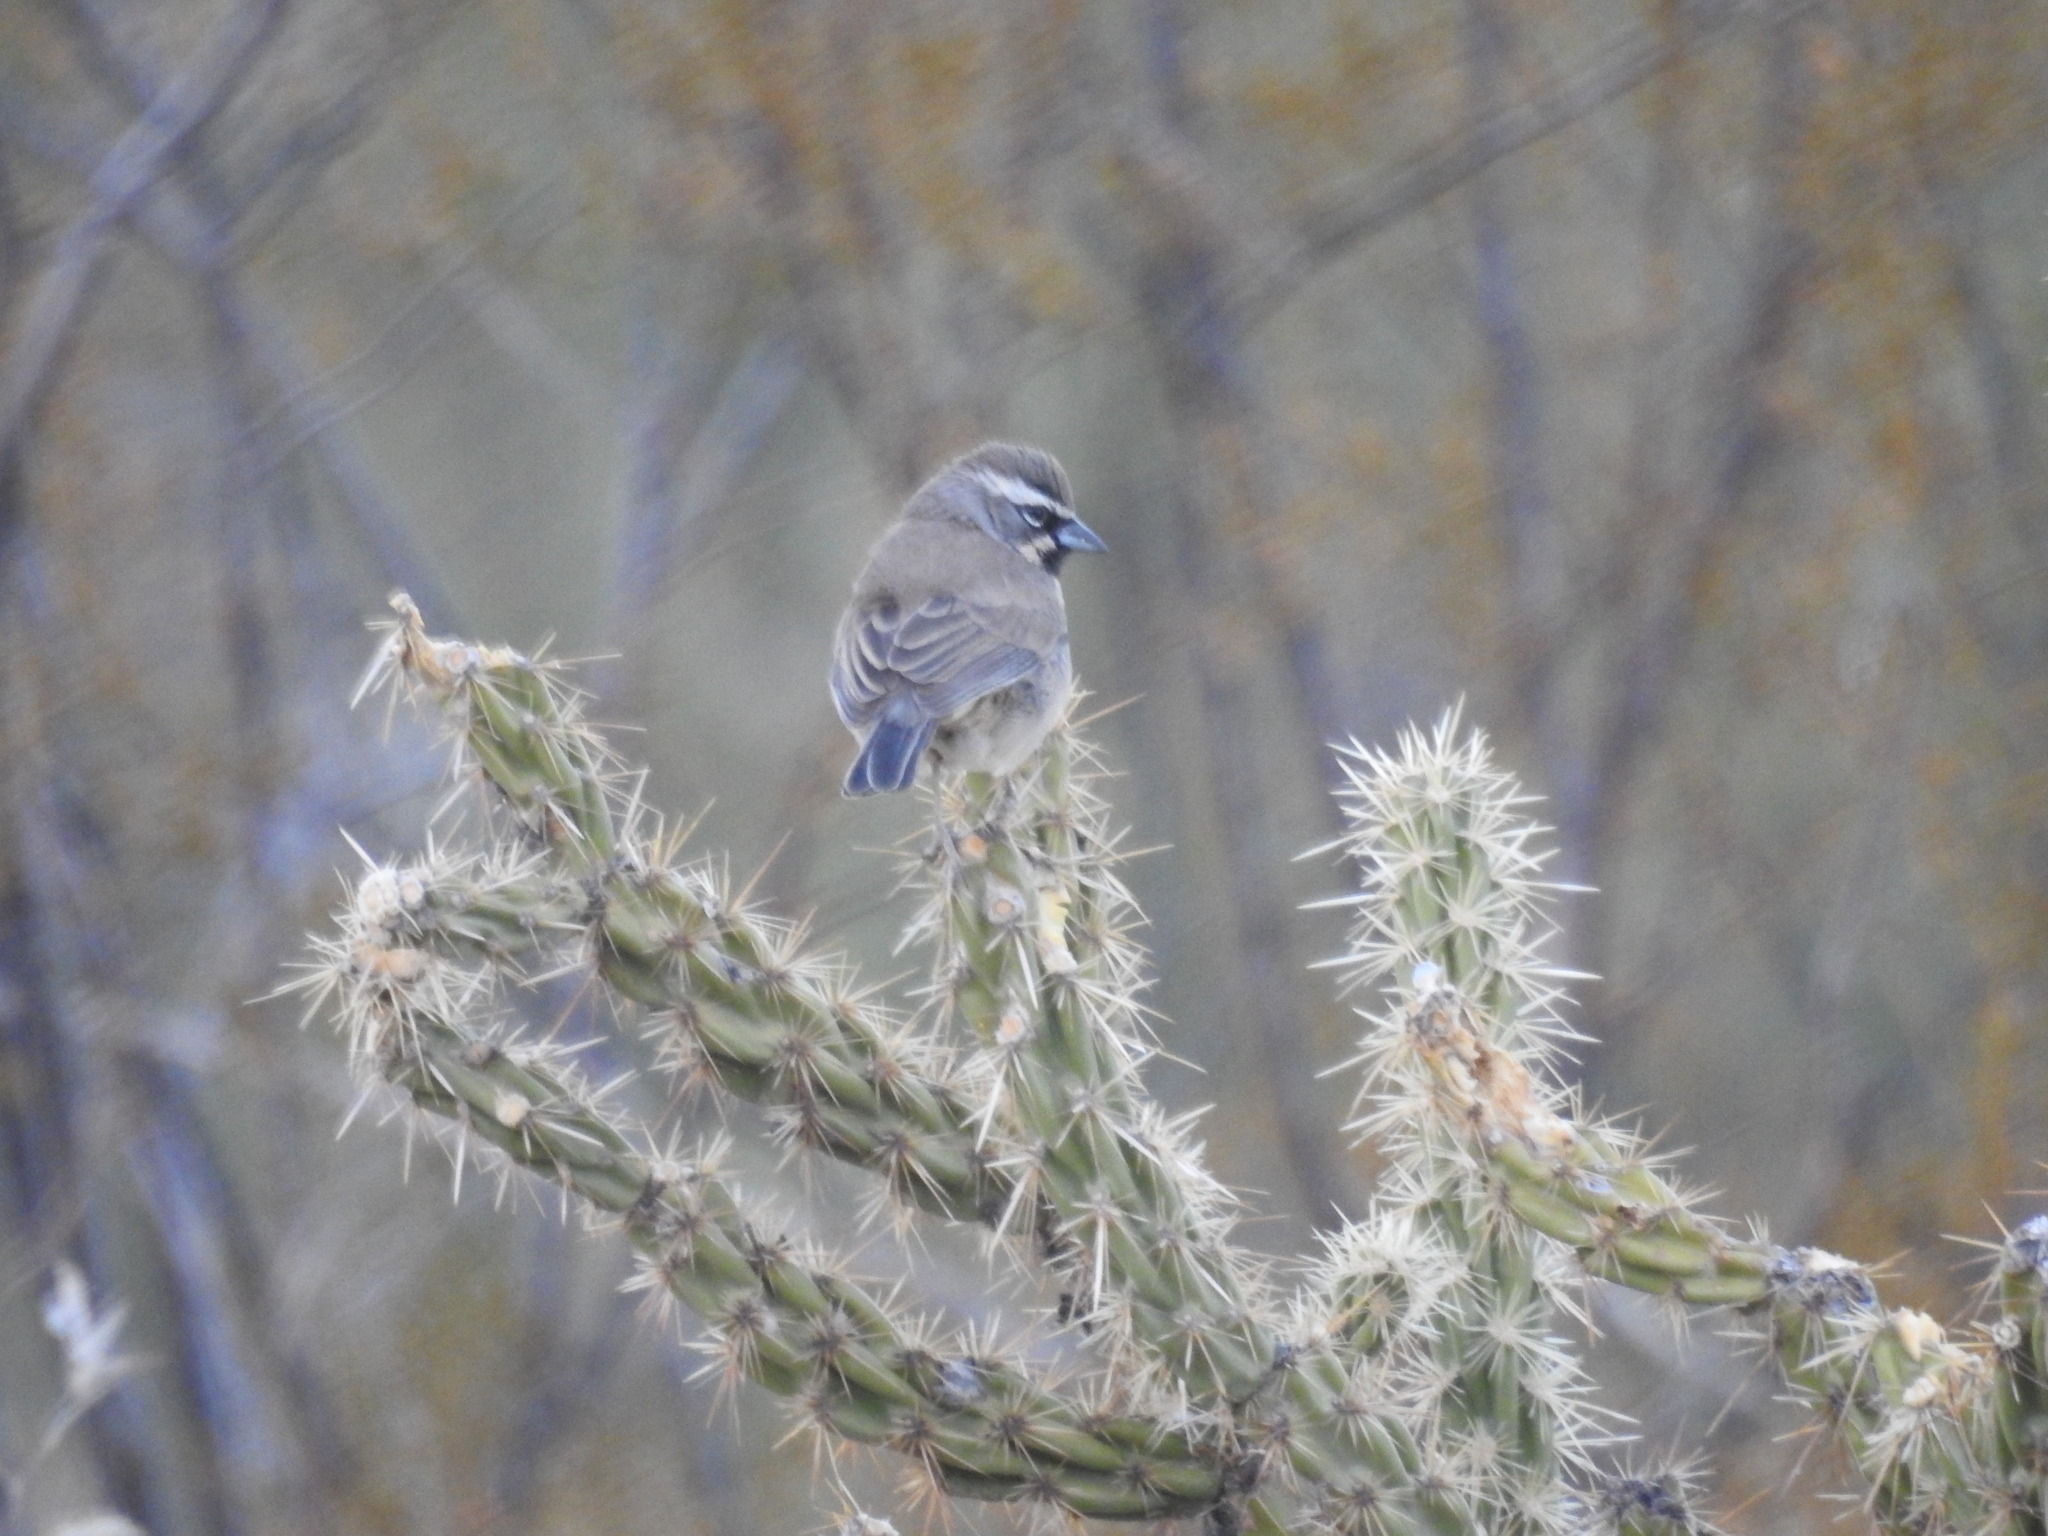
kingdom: Animalia
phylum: Chordata
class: Aves
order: Passeriformes
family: Passerellidae
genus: Amphispiza
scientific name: Amphispiza bilineata
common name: Black-throated sparrow
